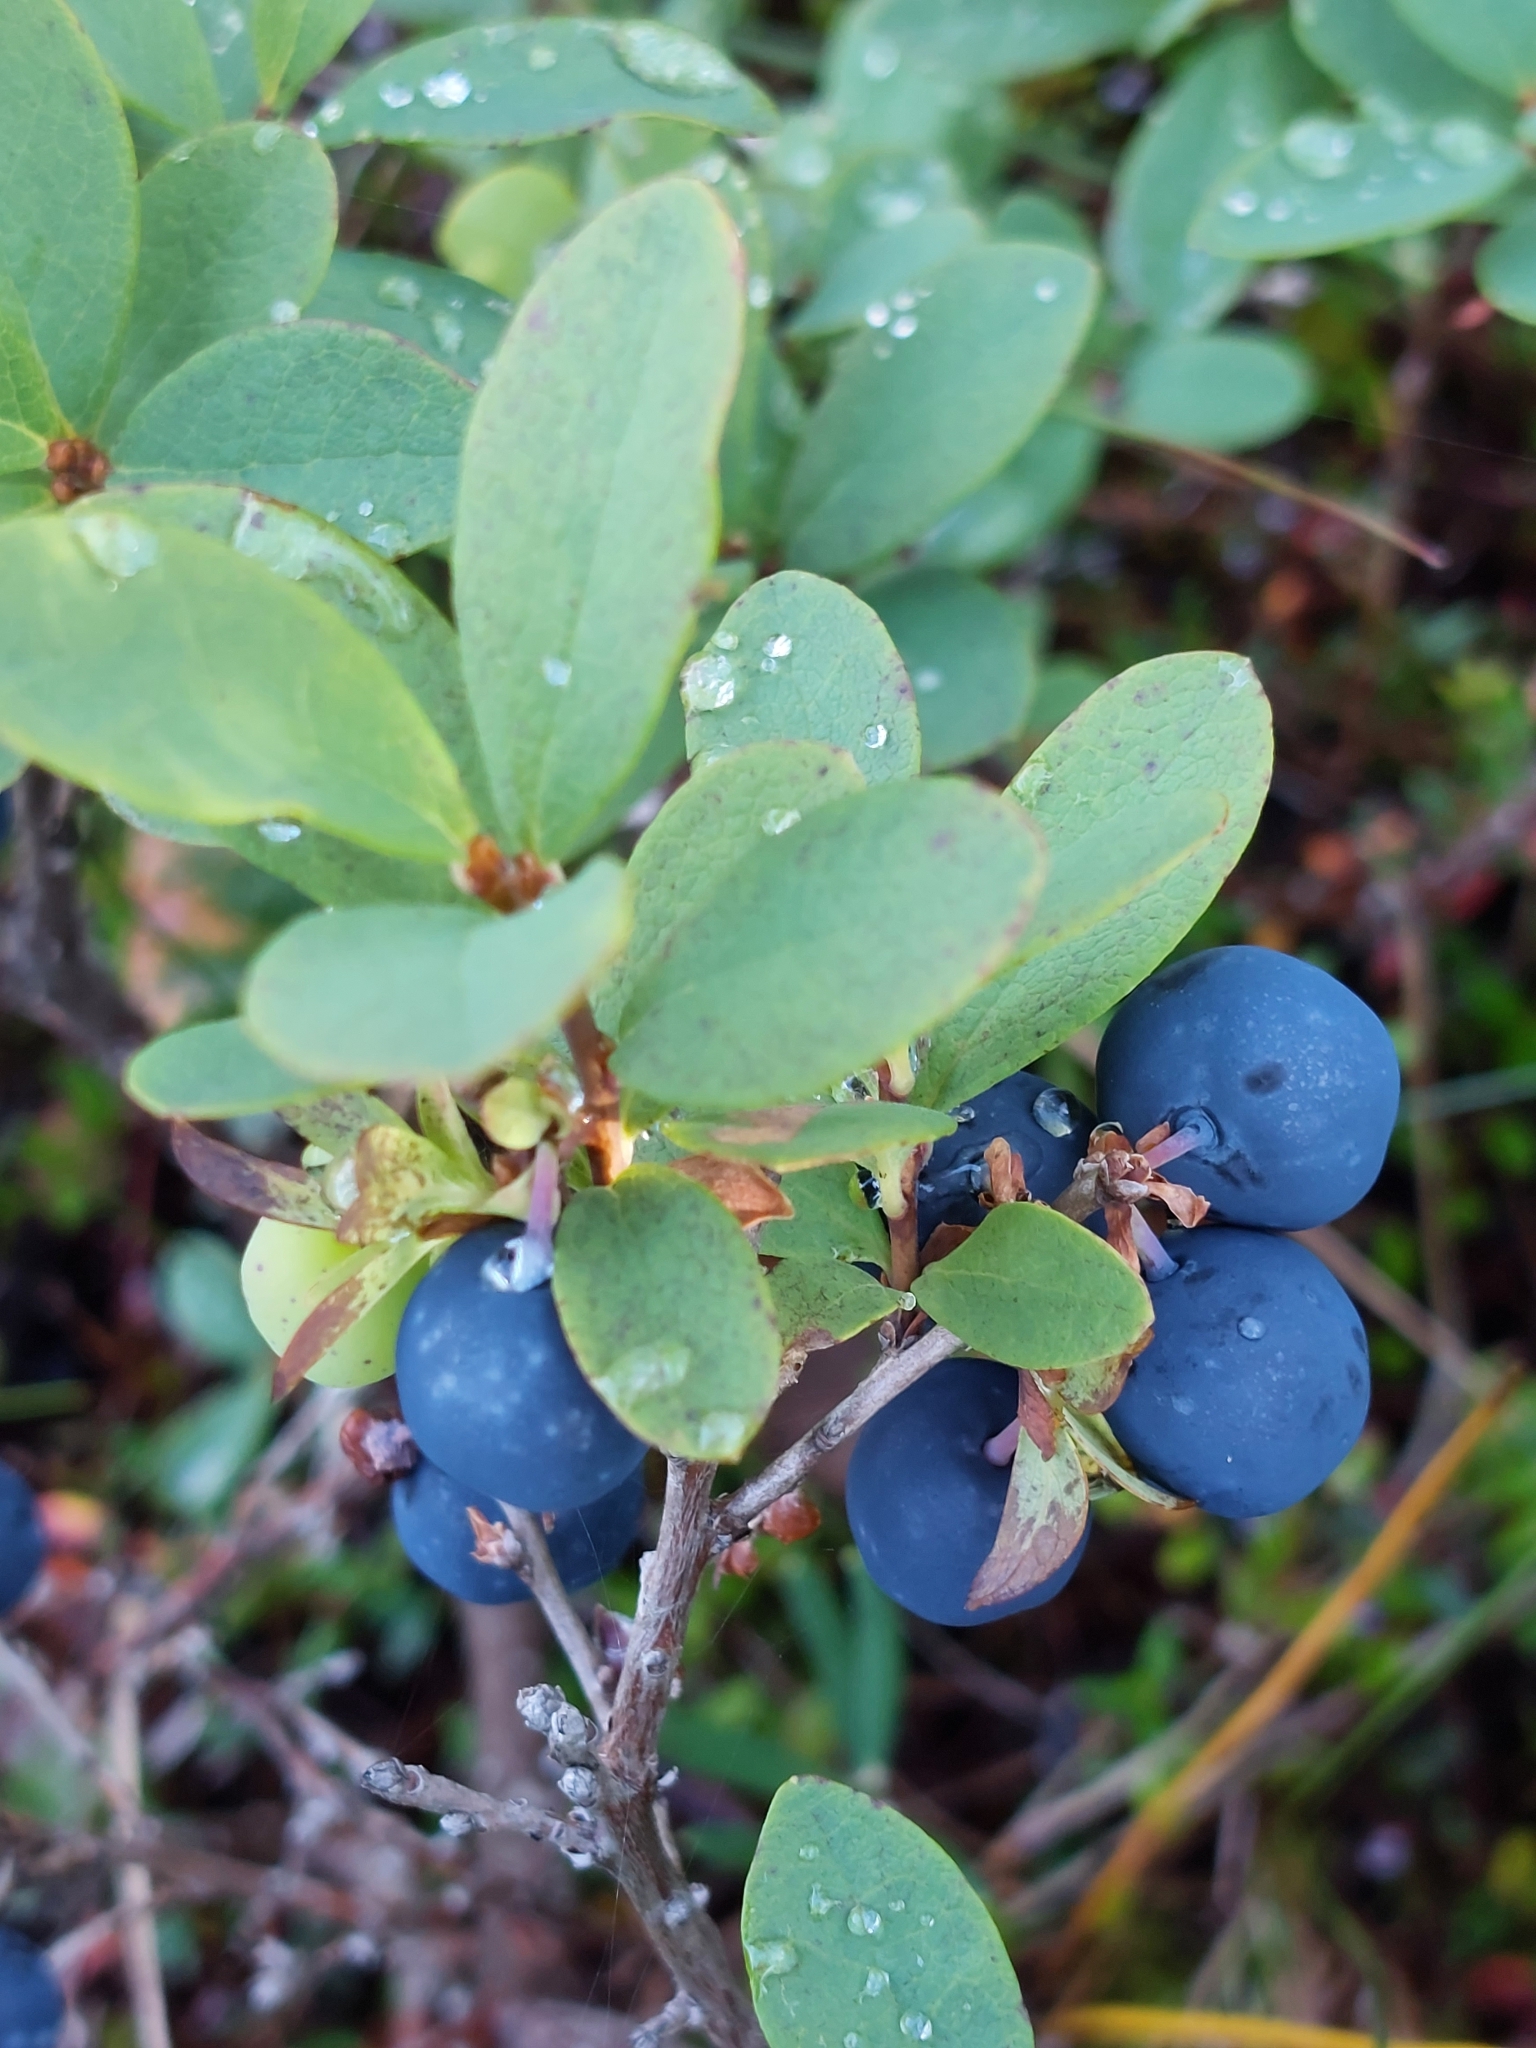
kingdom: Plantae
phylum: Tracheophyta
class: Magnoliopsida
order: Ericales
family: Ericaceae
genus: Vaccinium
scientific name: Vaccinium uliginosum
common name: Bog bilberry
